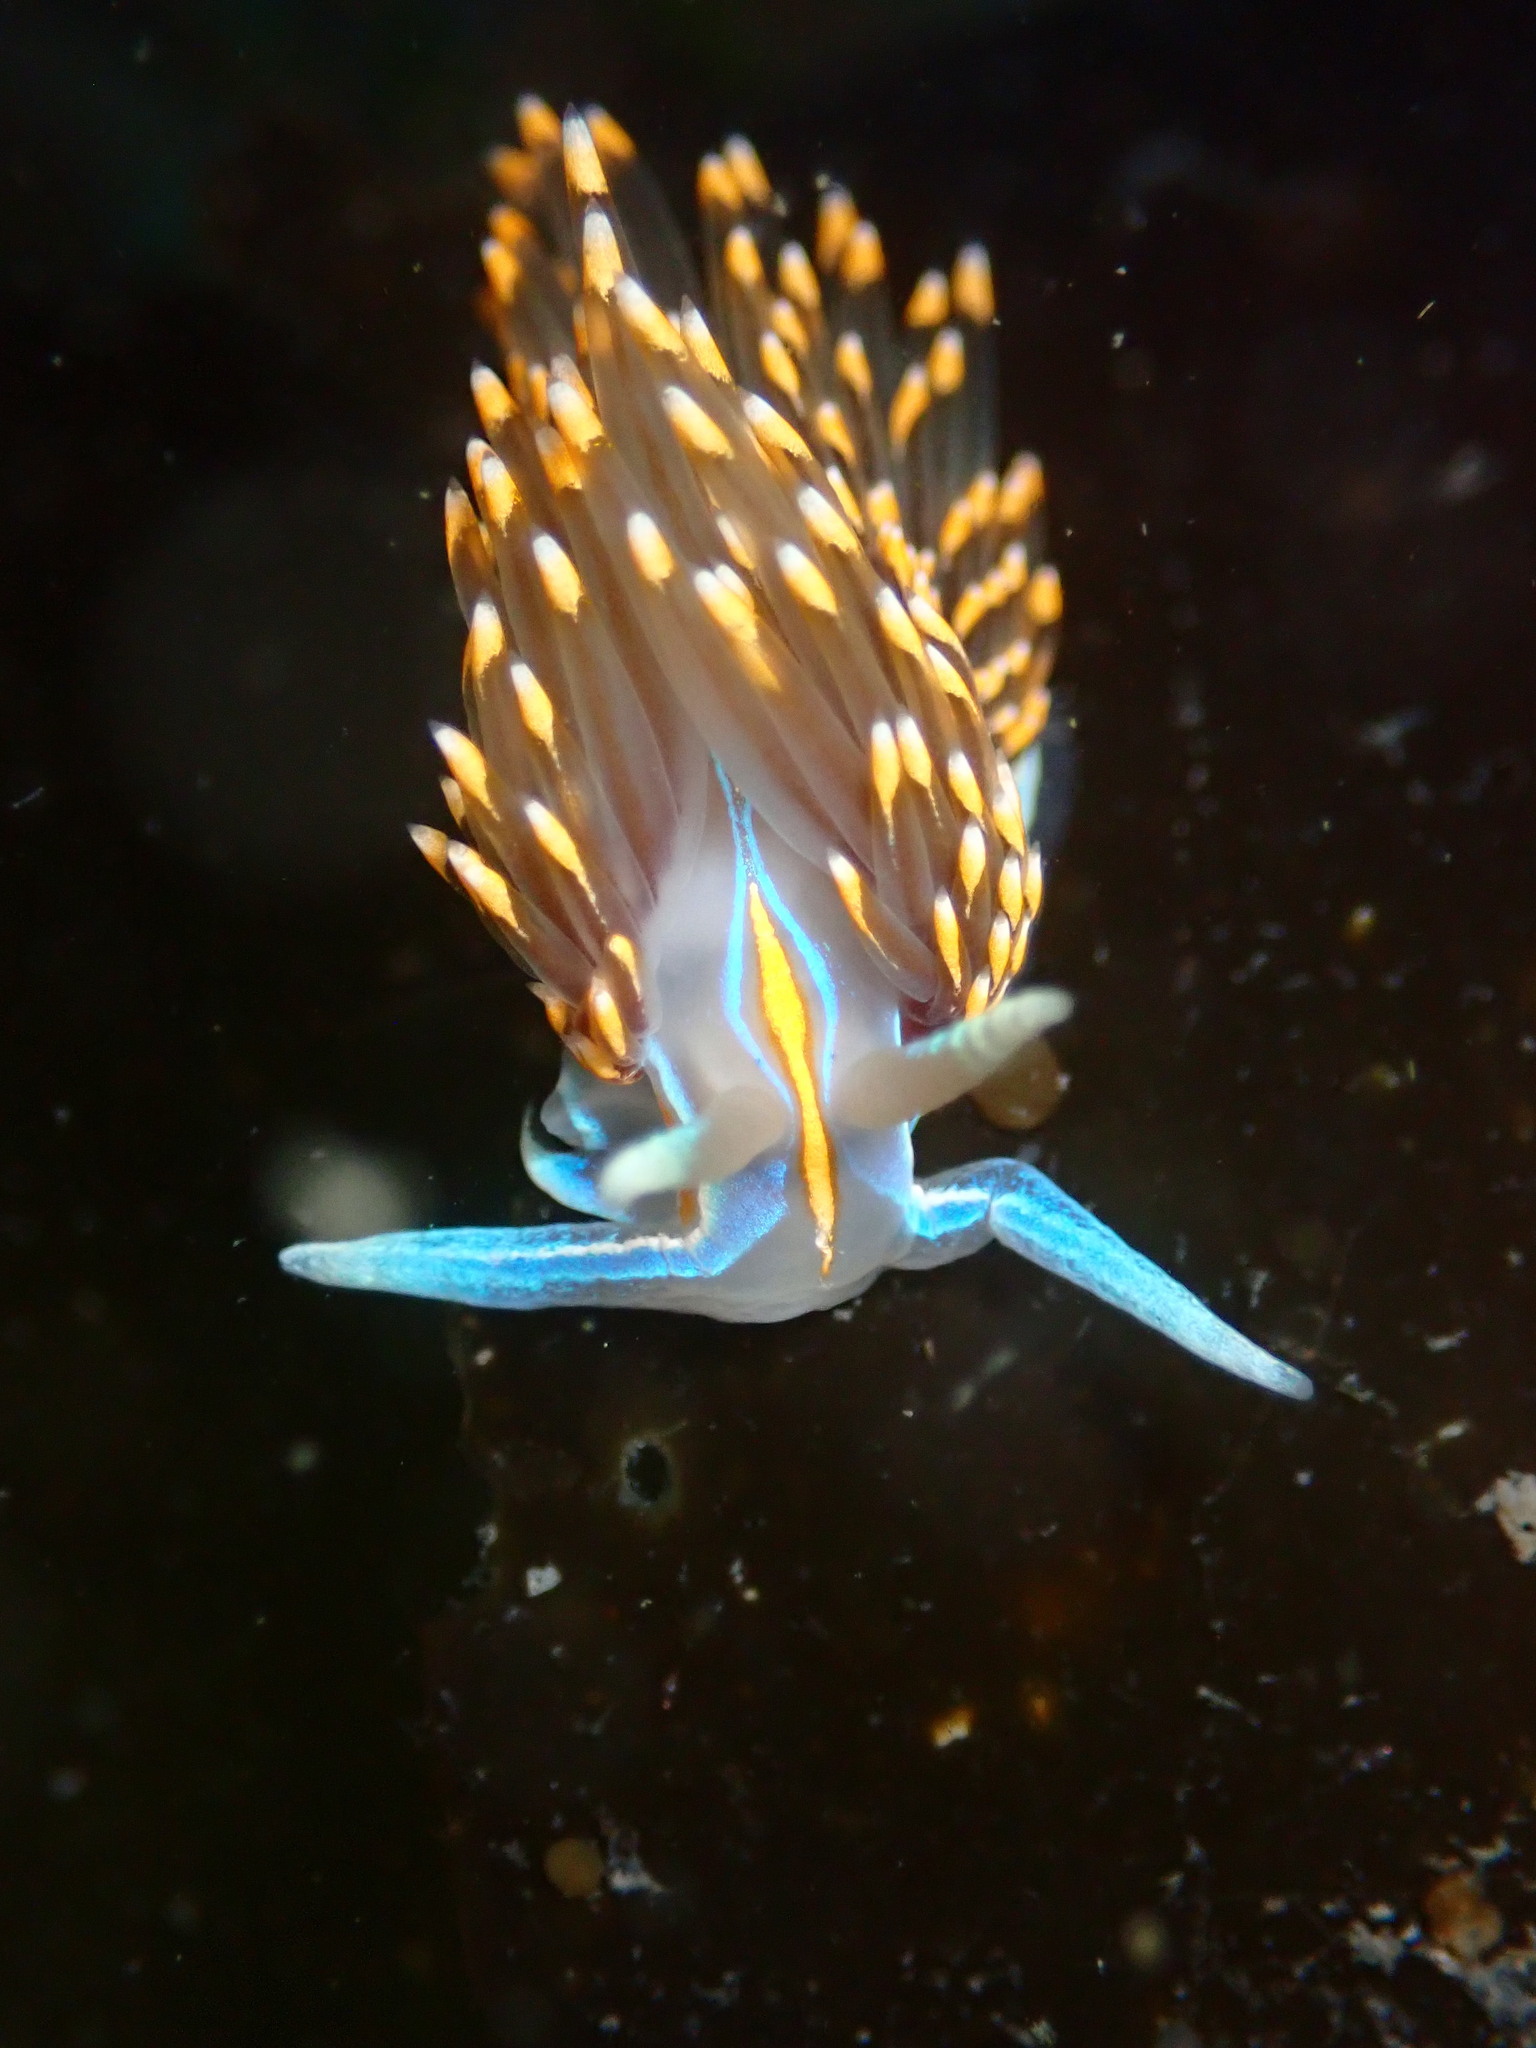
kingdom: Animalia
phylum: Mollusca
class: Gastropoda
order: Nudibranchia
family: Myrrhinidae
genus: Hermissenda
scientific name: Hermissenda opalescens
